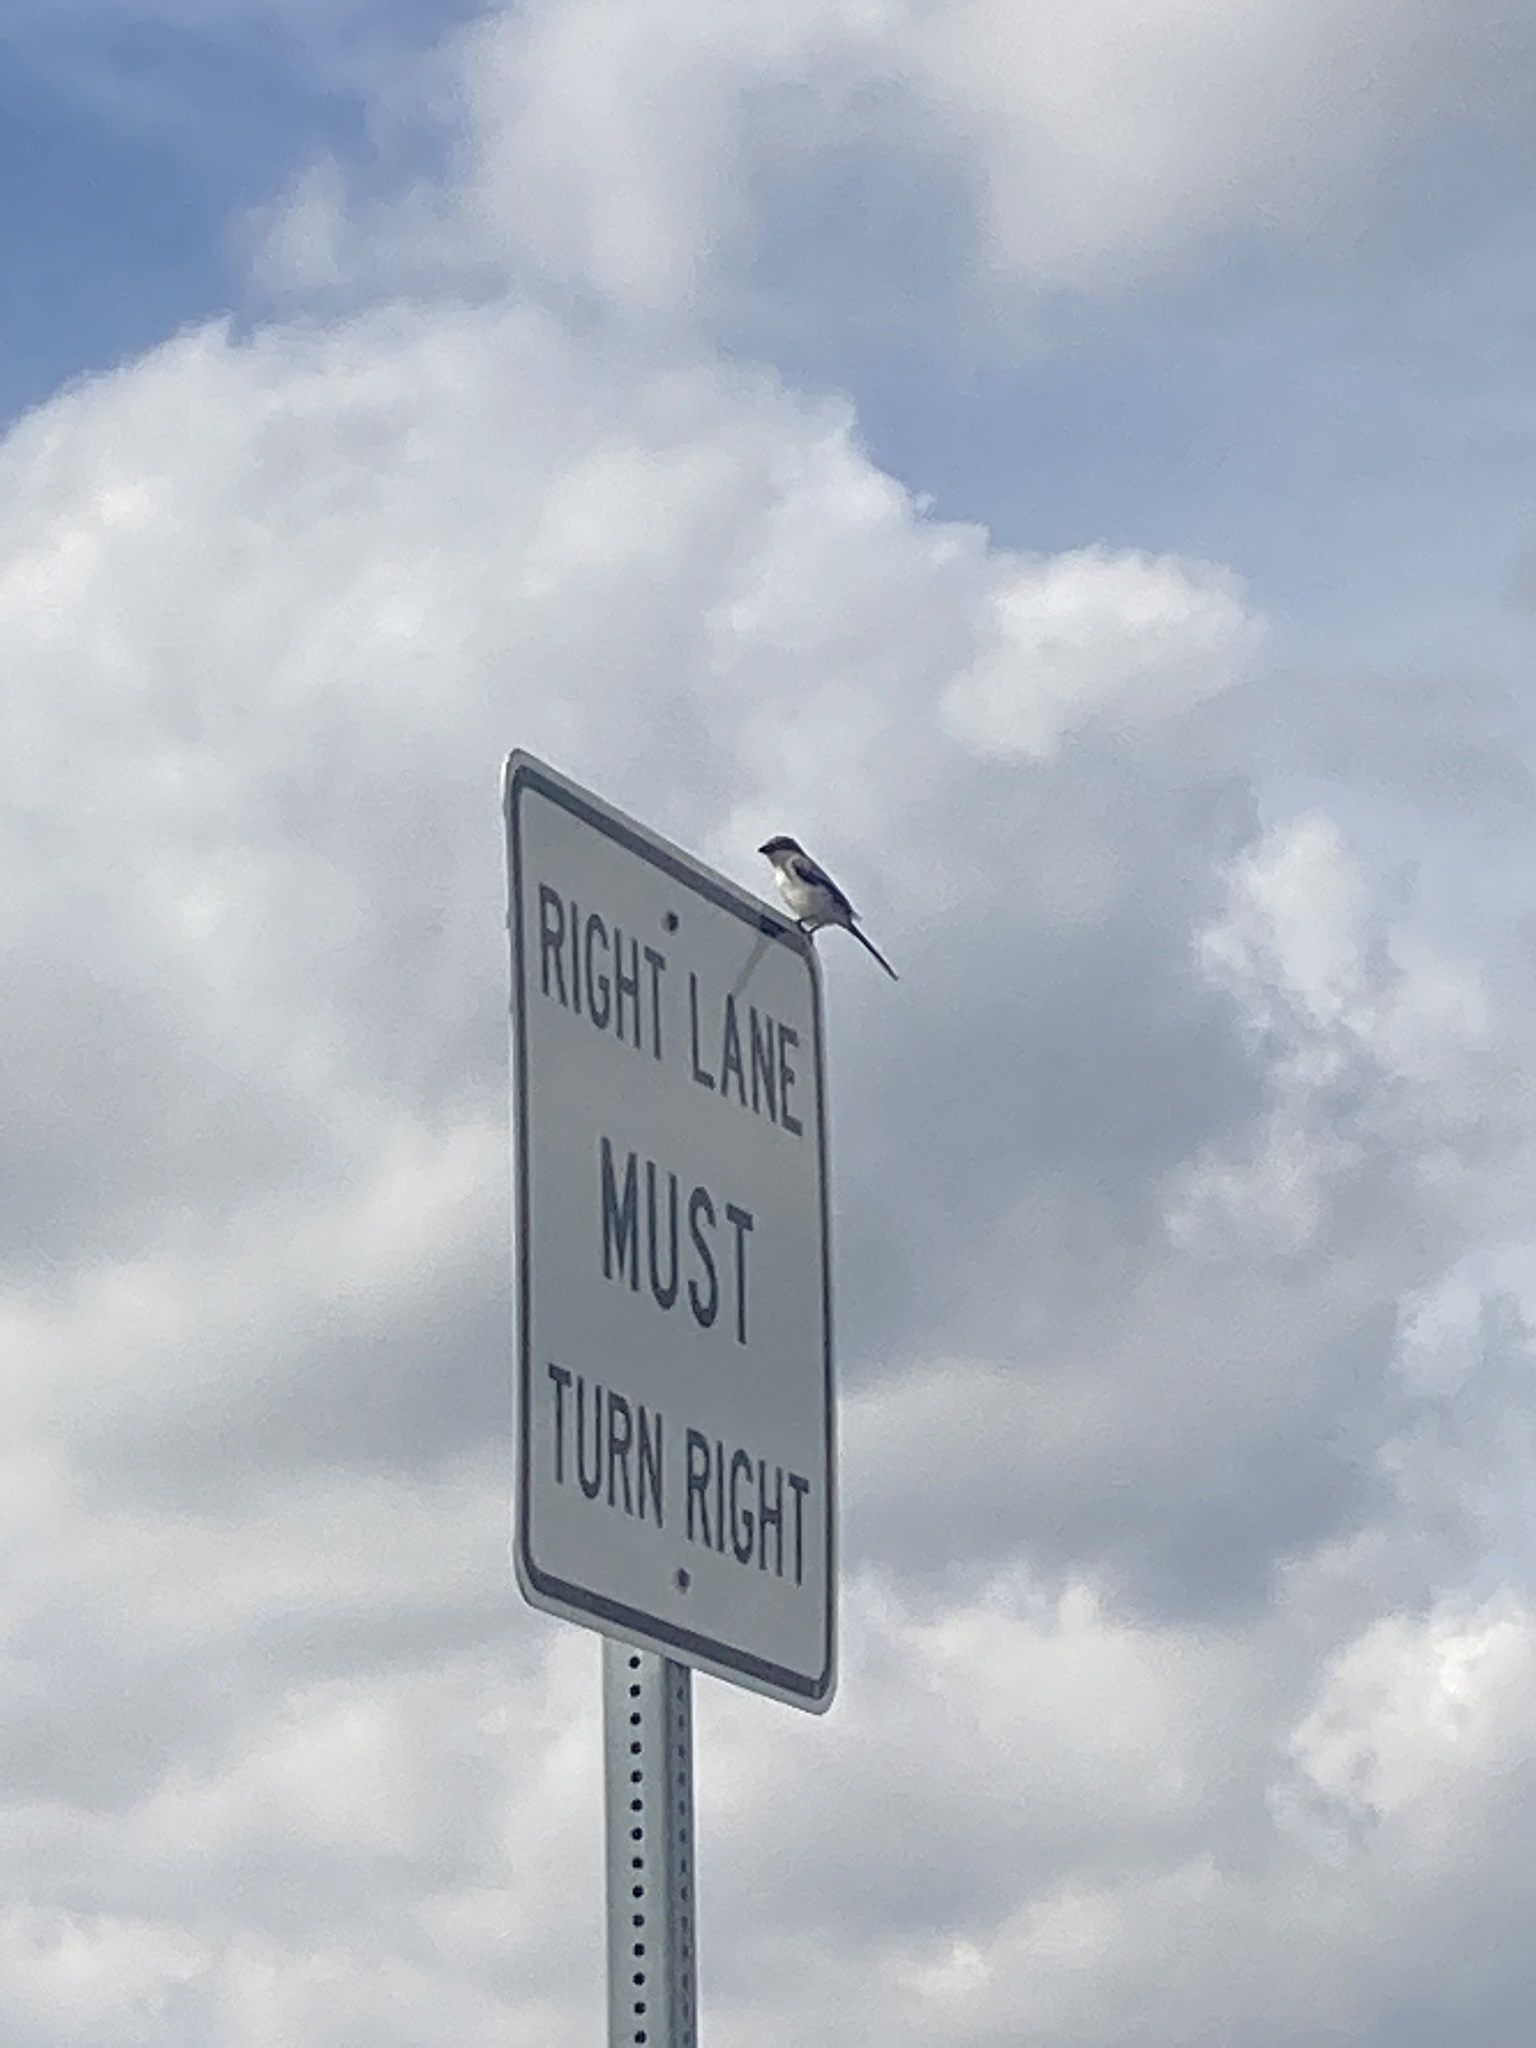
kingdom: Animalia
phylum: Chordata
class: Aves
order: Passeriformes
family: Laniidae
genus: Lanius
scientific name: Lanius ludovicianus
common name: Loggerhead shrike
